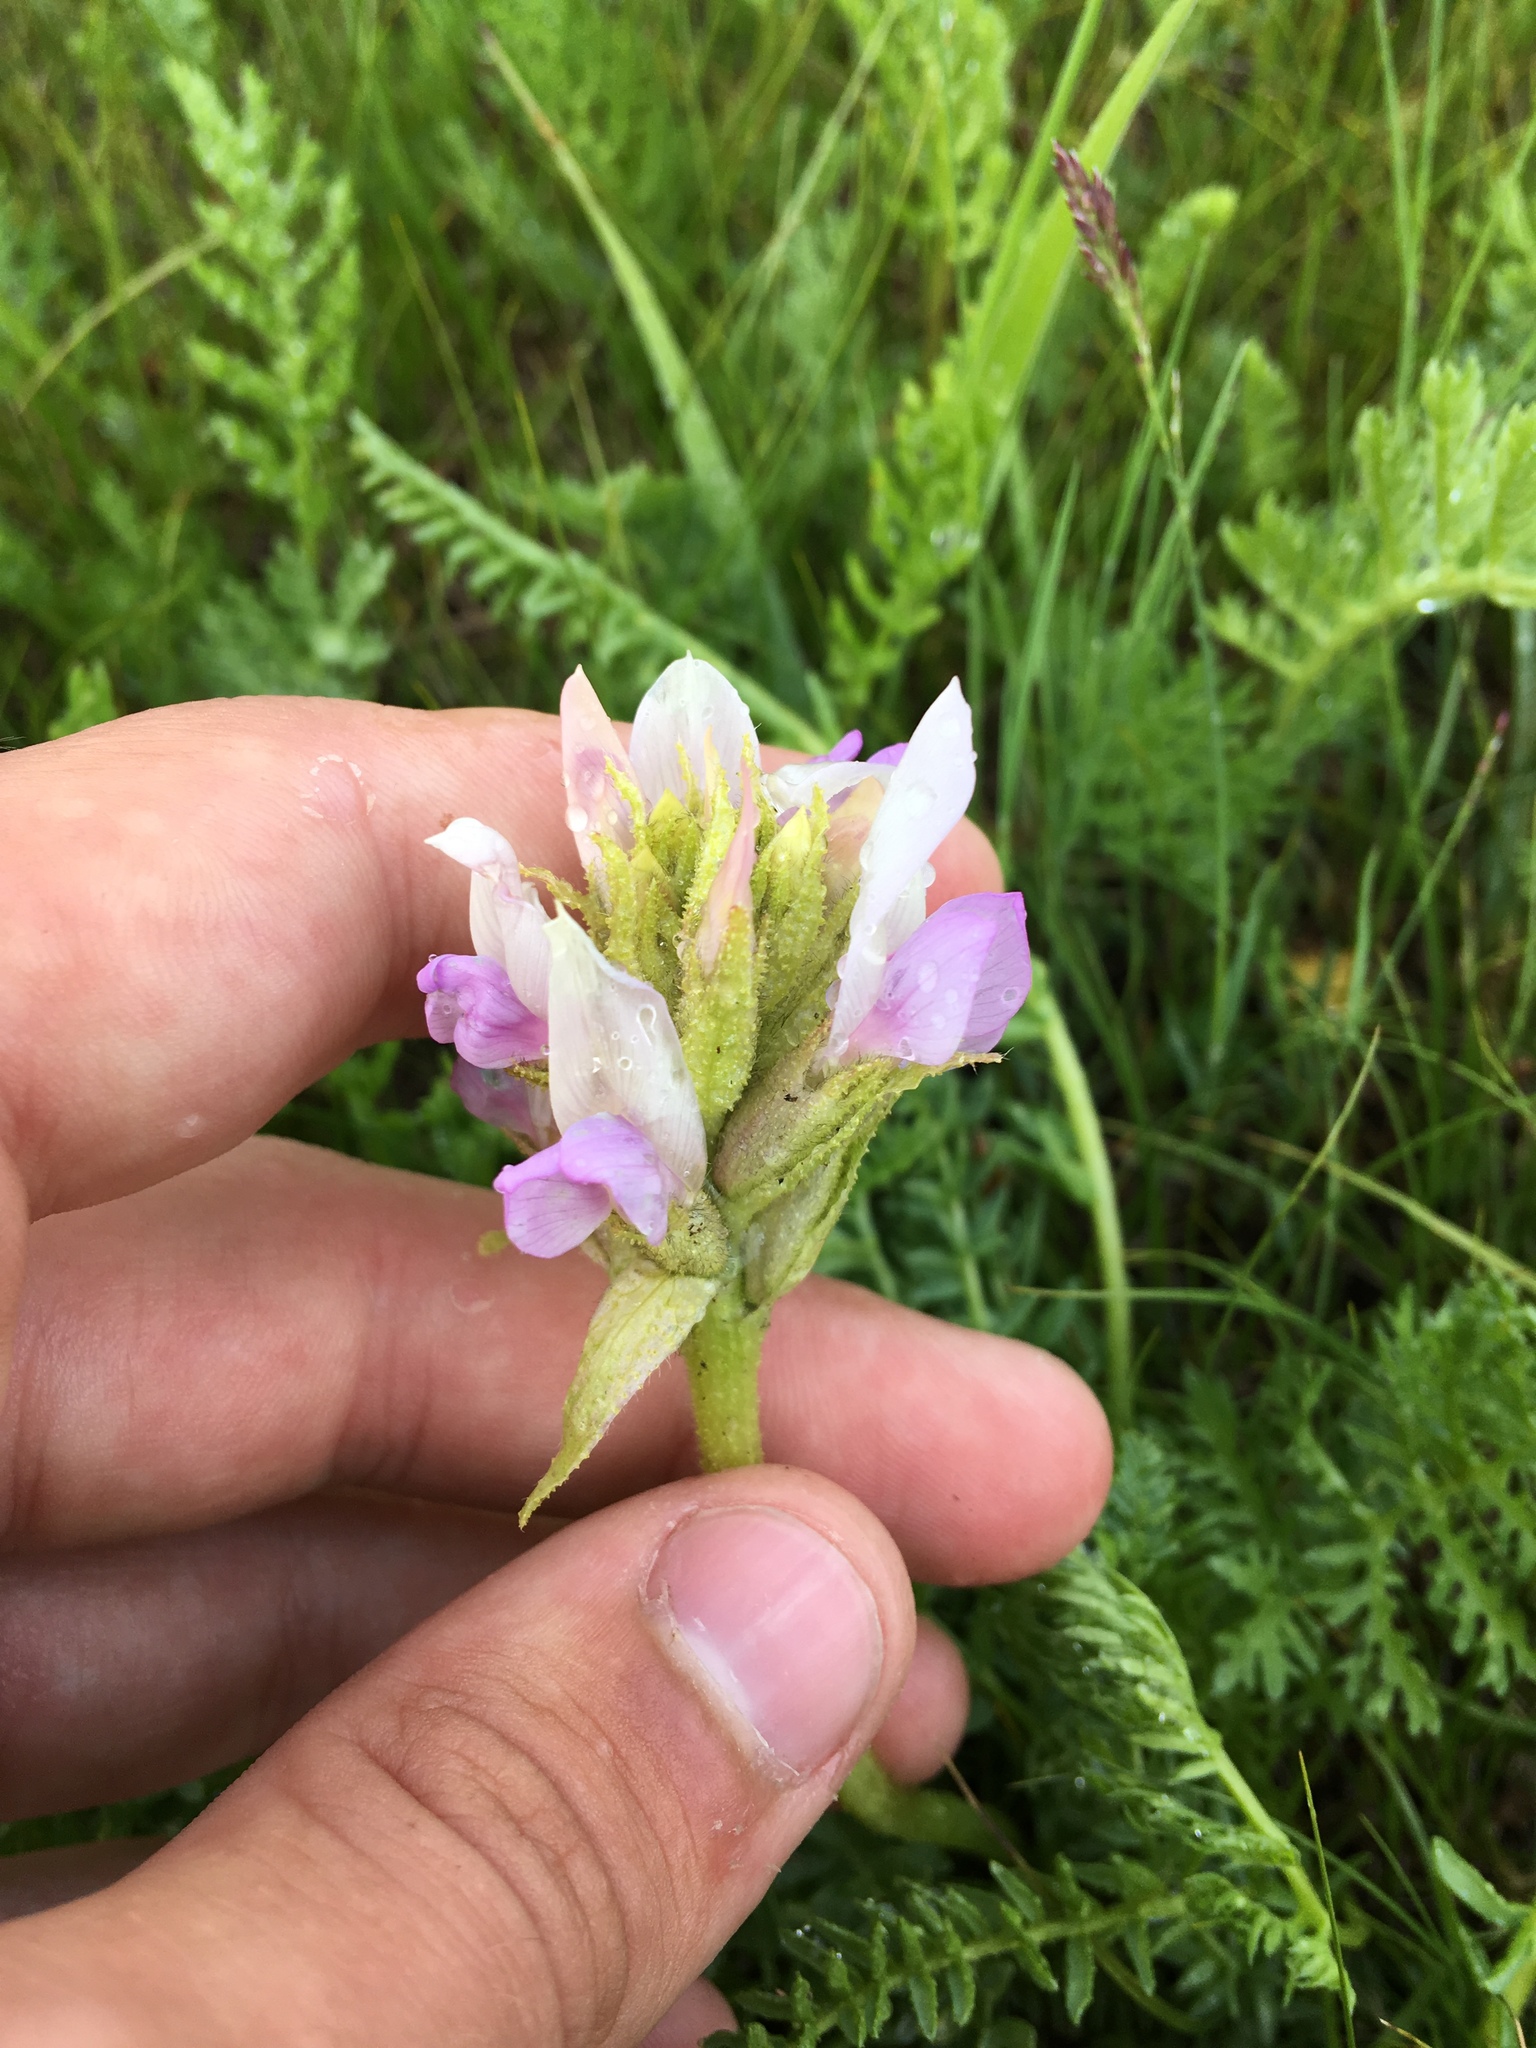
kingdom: Plantae
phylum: Tracheophyta
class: Magnoliopsida
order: Fabales
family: Fabaceae
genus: Oxytropis
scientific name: Oxytropis pseudoglandulosa
